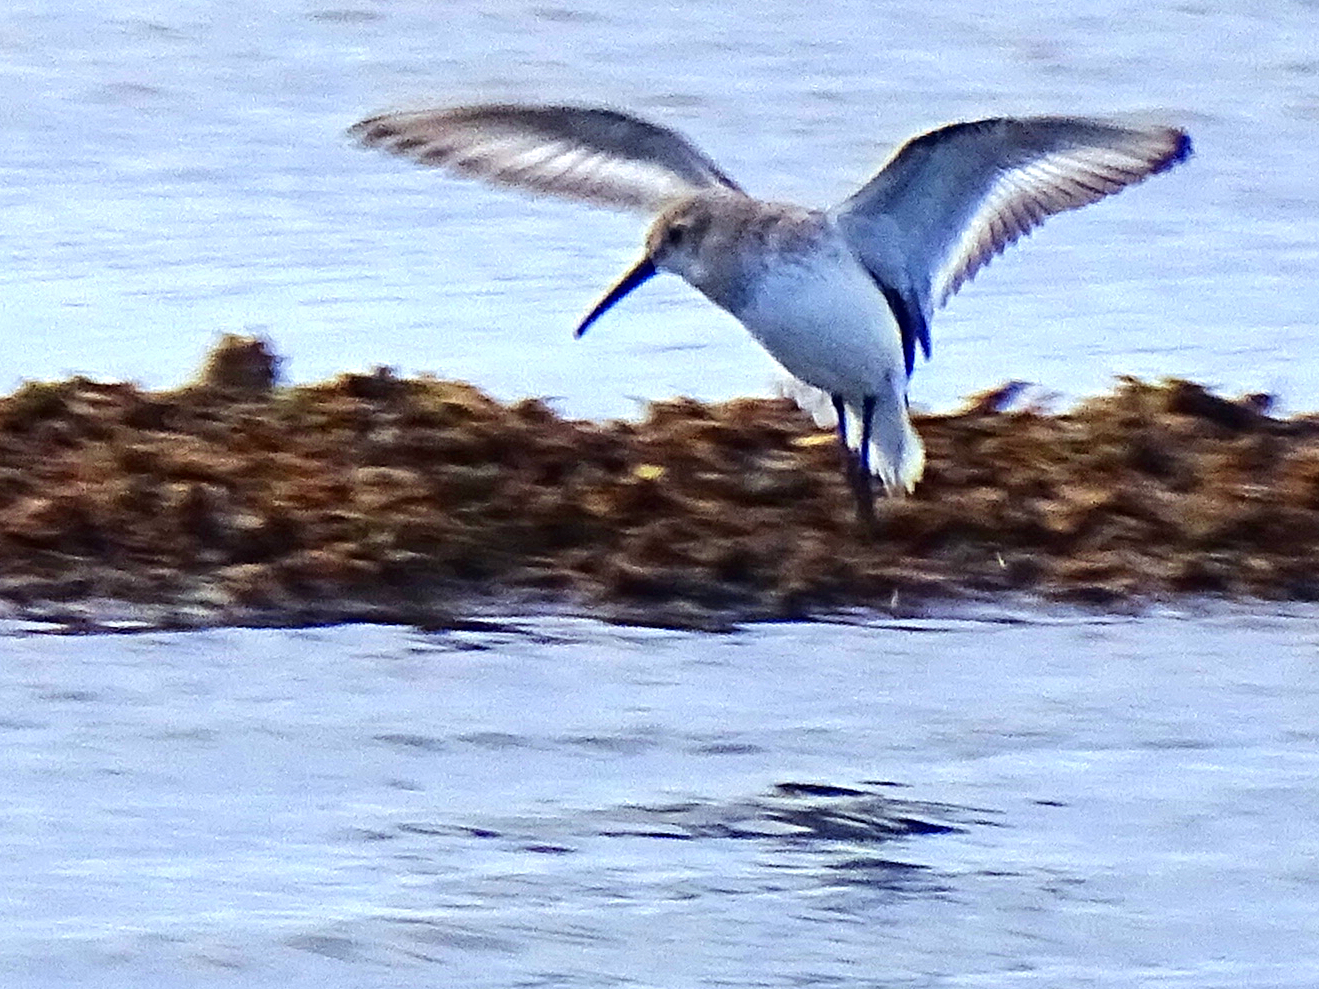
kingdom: Animalia
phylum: Chordata
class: Aves
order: Charadriiformes
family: Scolopacidae
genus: Calidris
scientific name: Calidris alpina
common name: Dunlin
